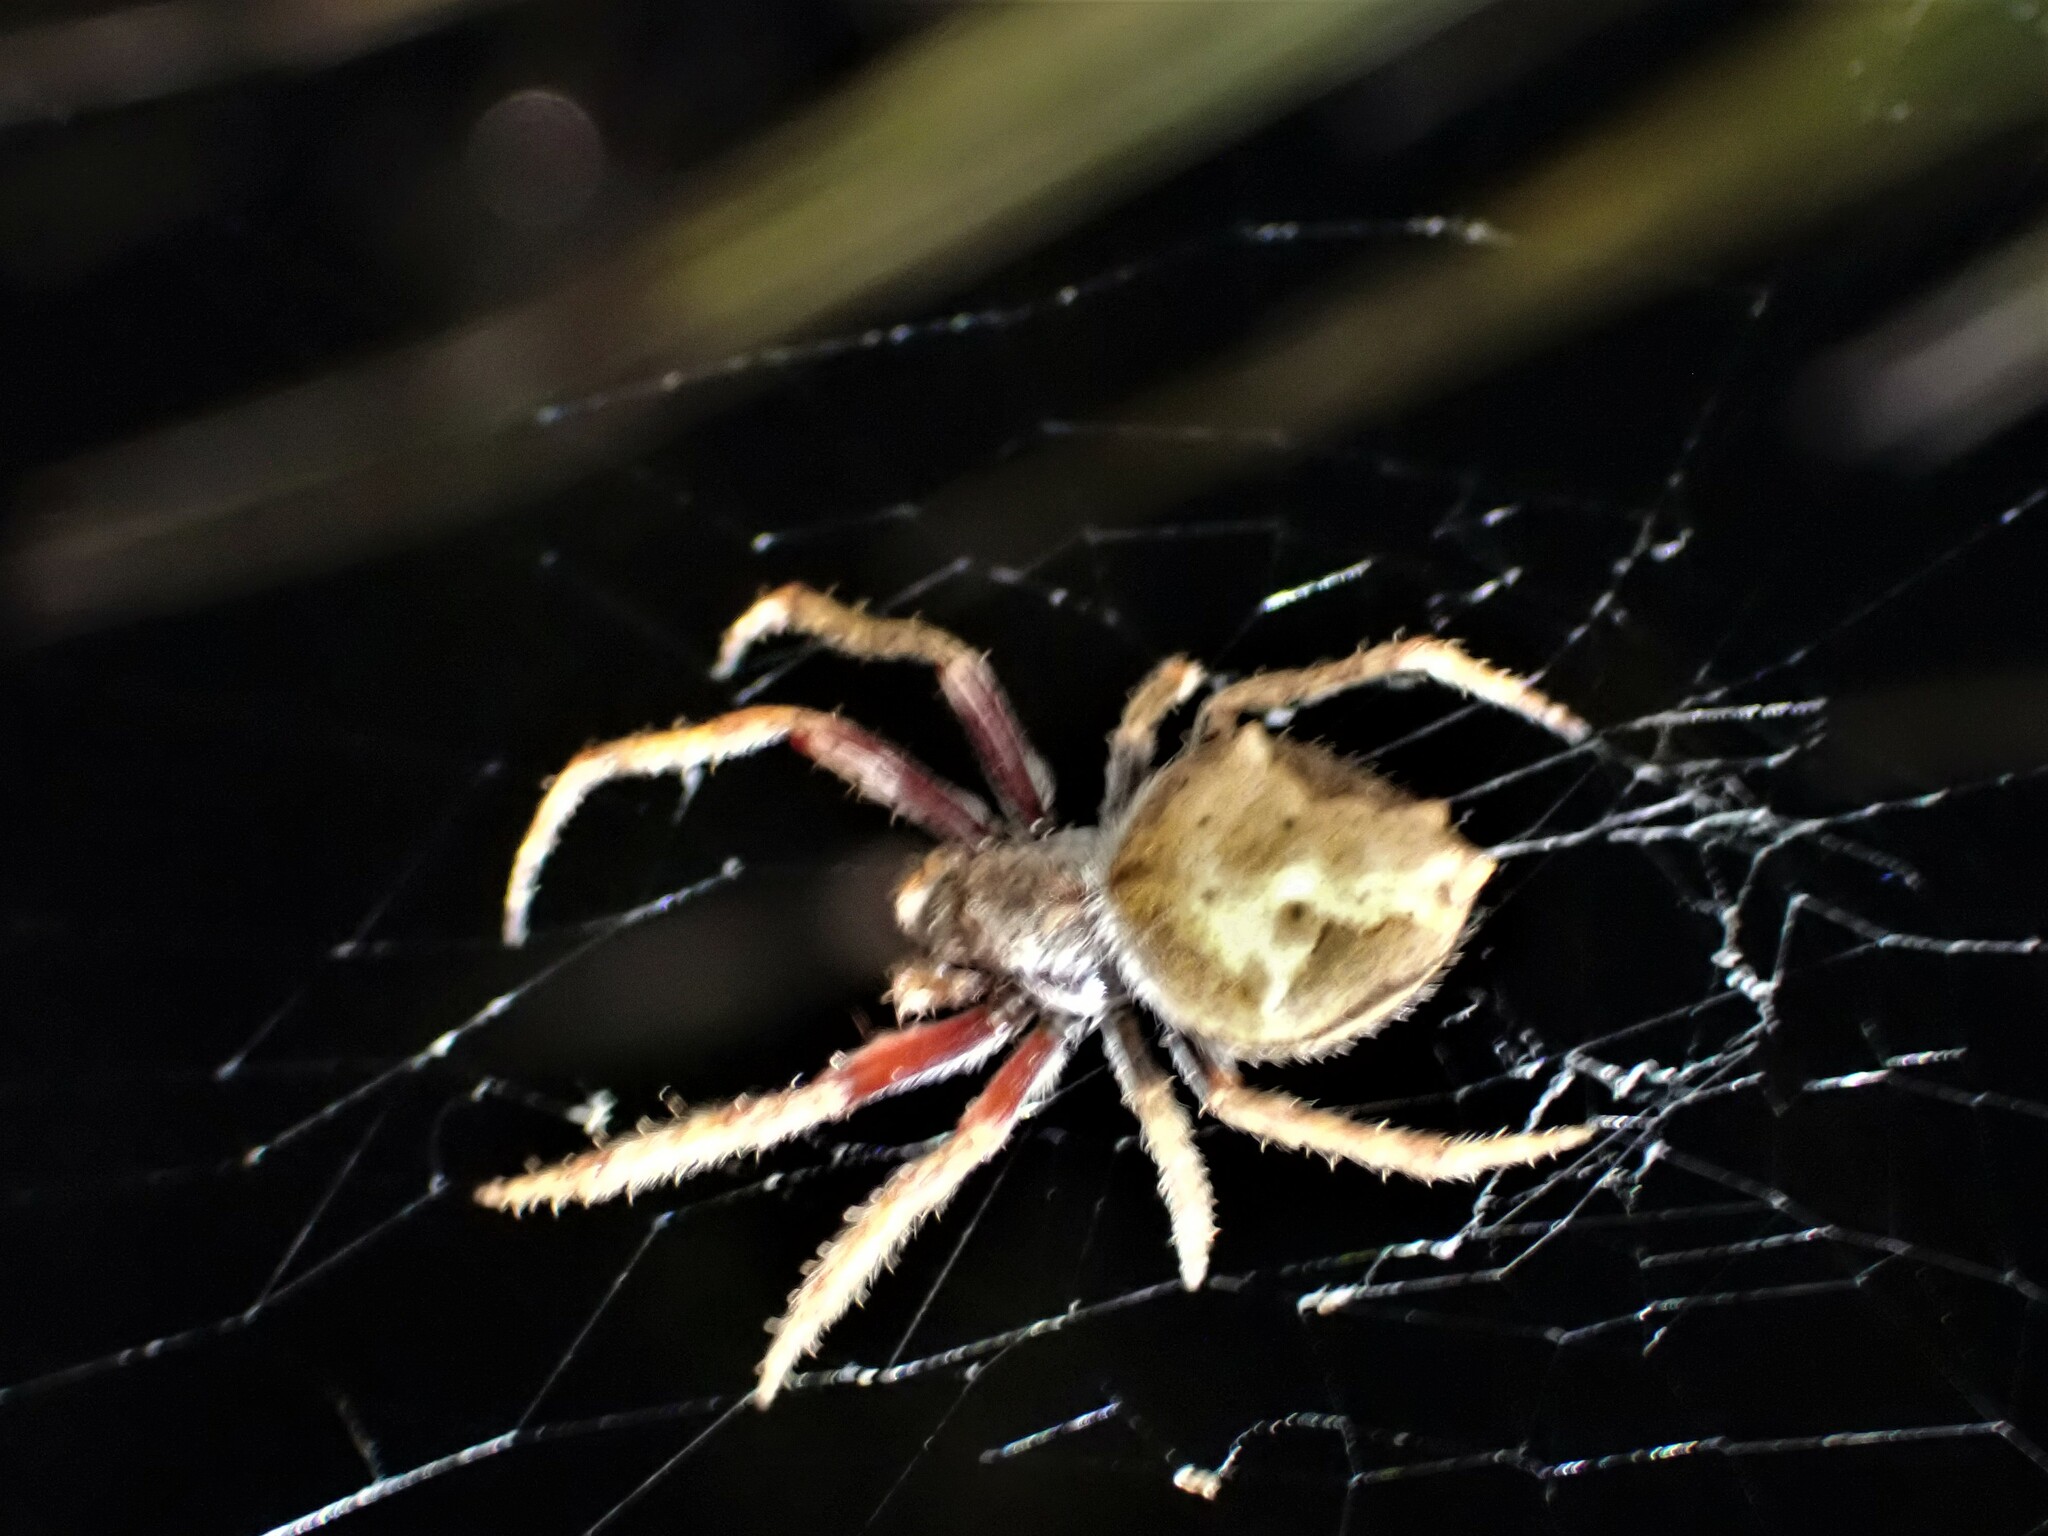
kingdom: Animalia
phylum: Arthropoda
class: Arachnida
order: Araneae
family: Araneidae
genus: Eriophora
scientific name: Eriophora pustulosa
